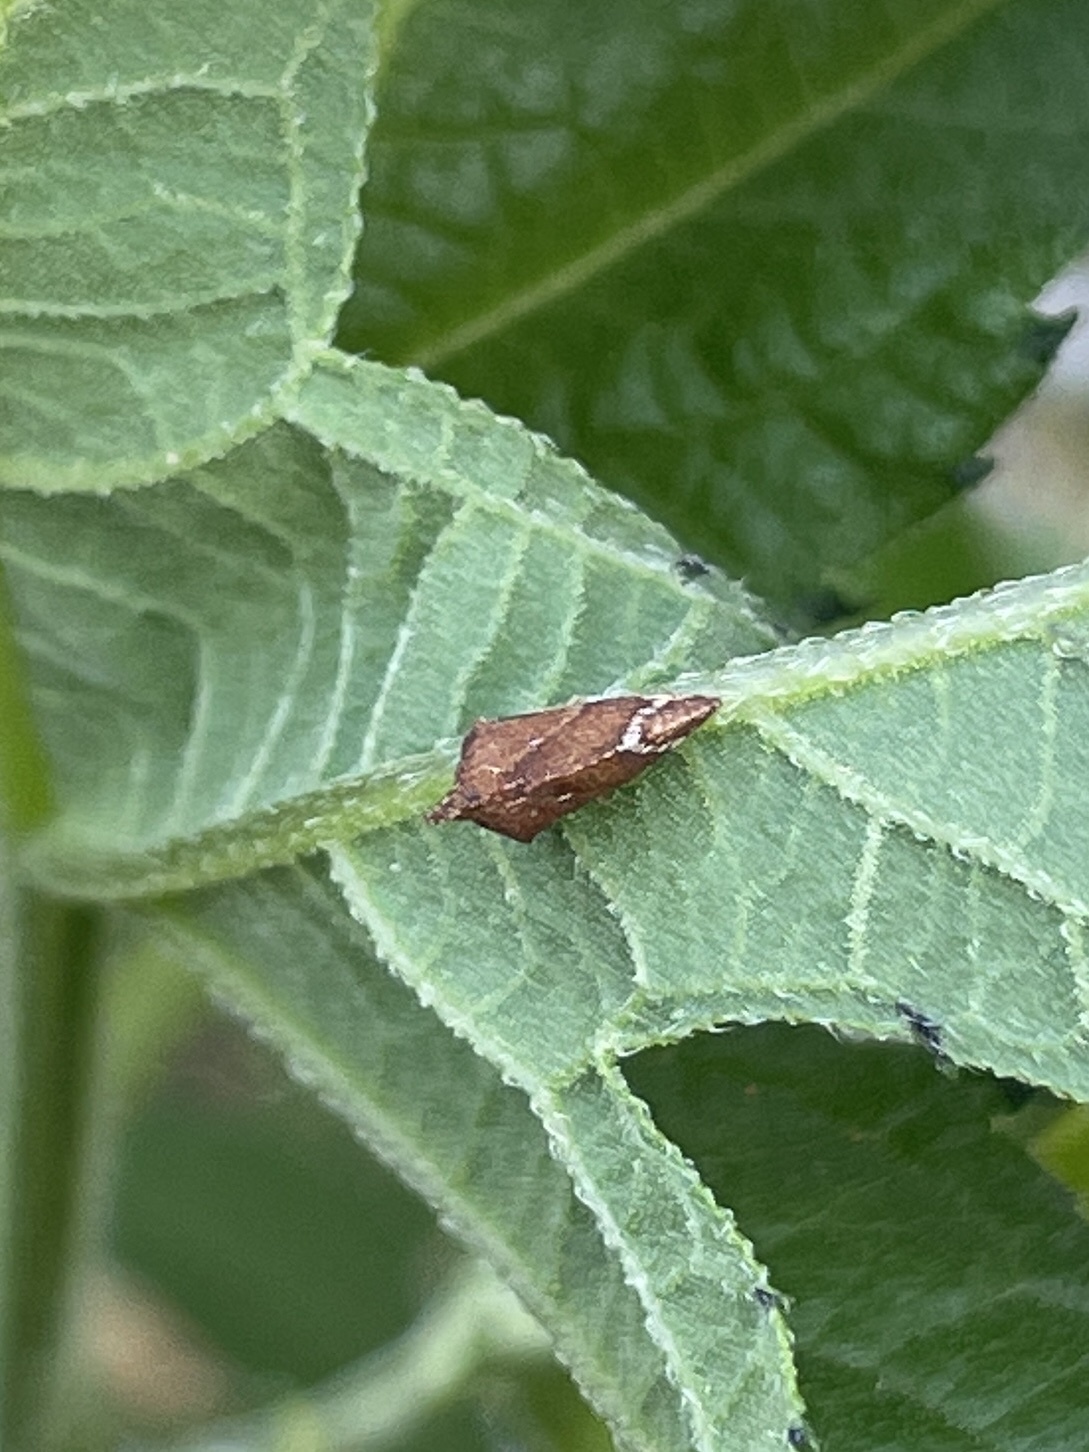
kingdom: Animalia
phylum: Arthropoda
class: Insecta
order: Hemiptera
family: Membracidae
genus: Entylia
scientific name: Entylia carinata
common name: Keeled treehopper
